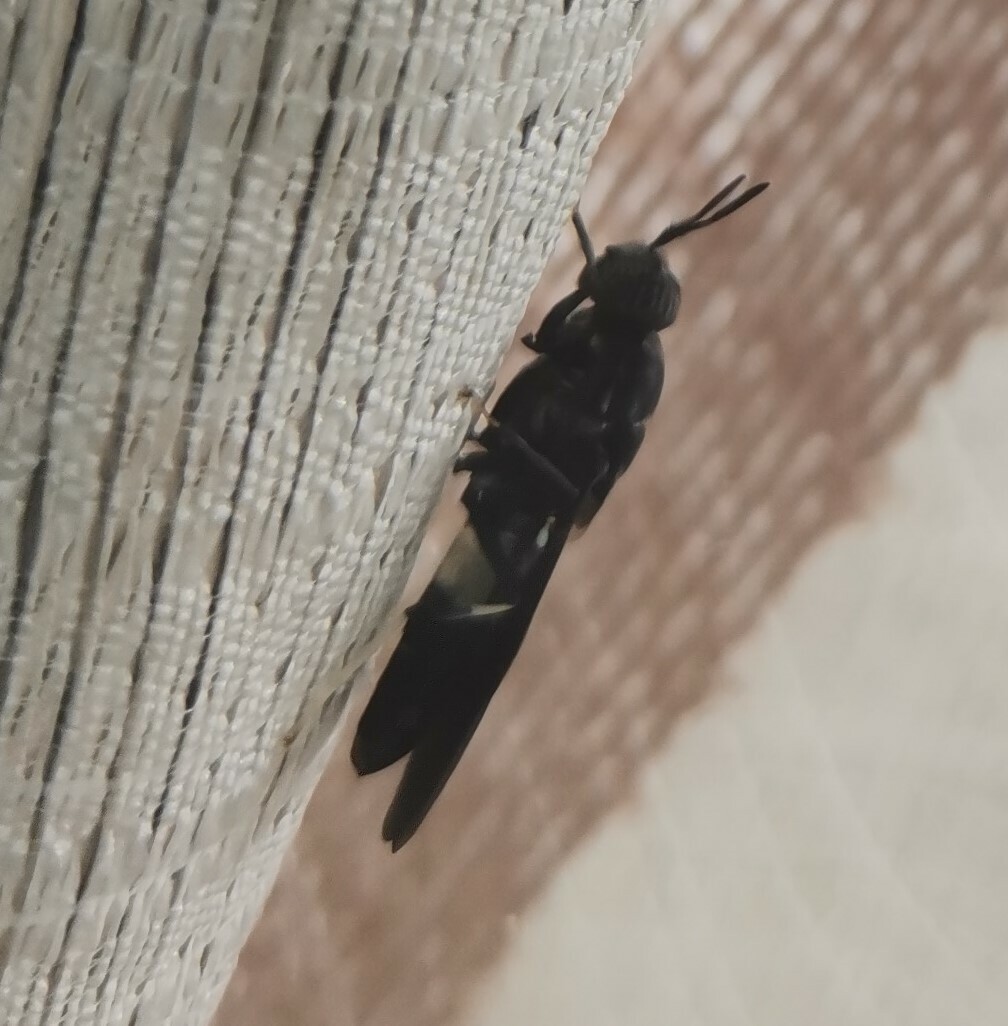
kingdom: Animalia
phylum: Arthropoda
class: Insecta
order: Diptera
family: Stratiomyidae
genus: Hermetia
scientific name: Hermetia illucens
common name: Black soldier fly
